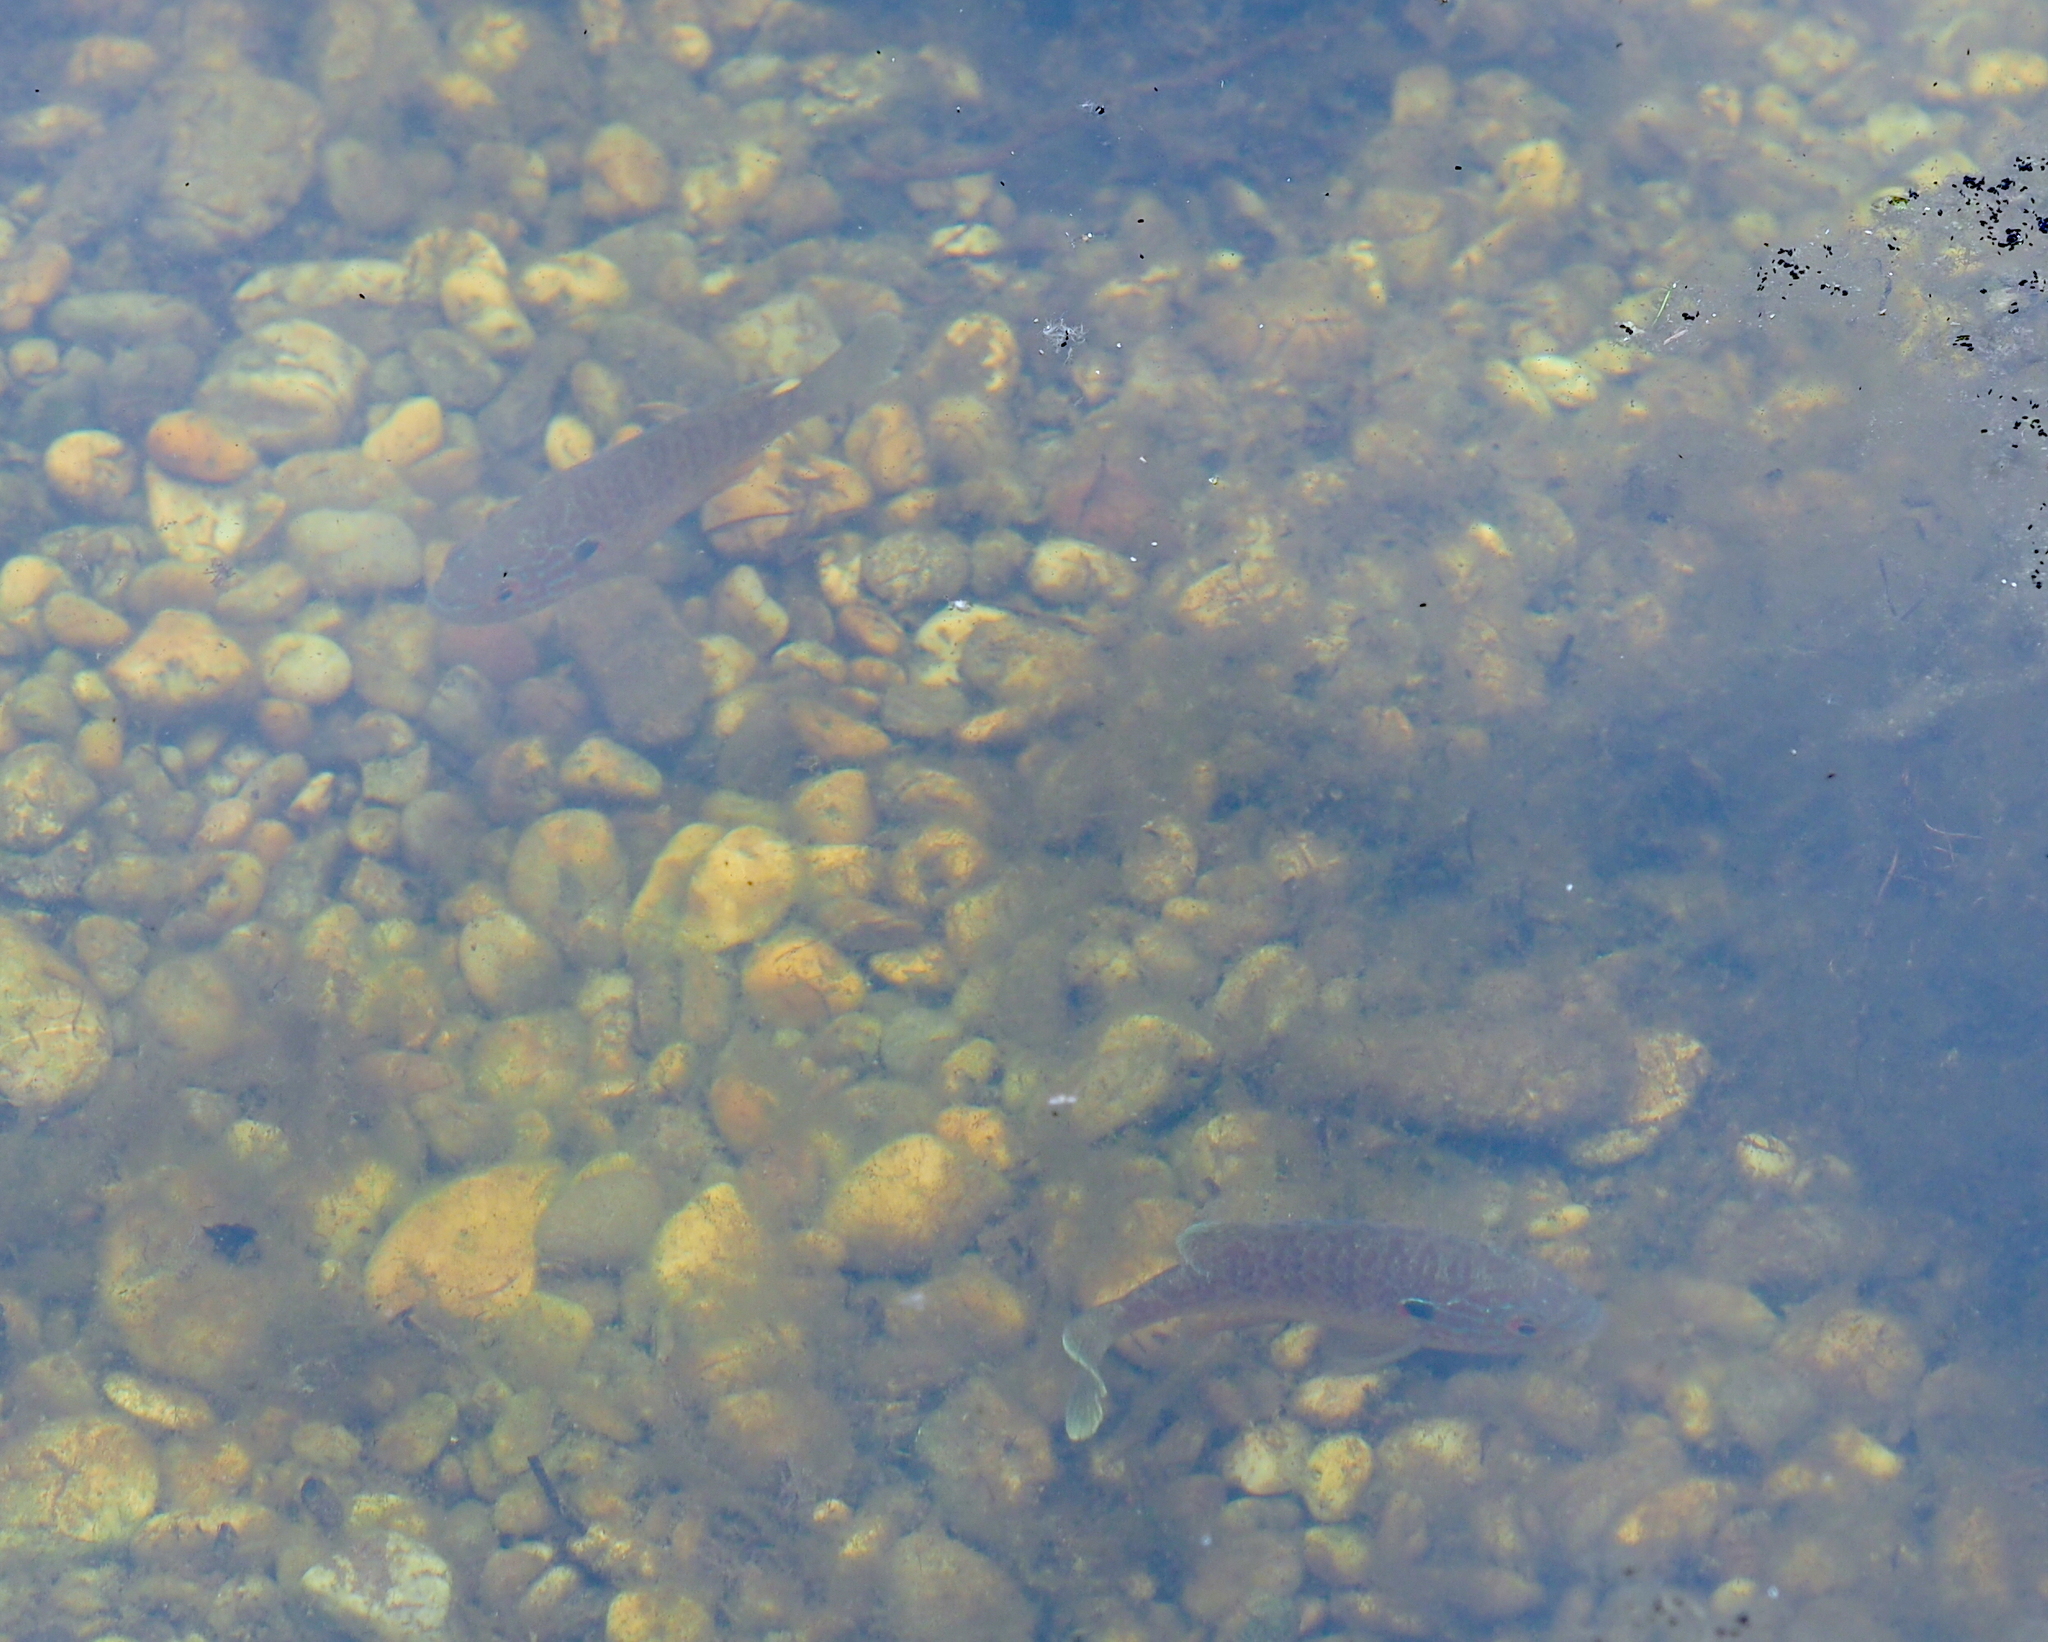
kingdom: Animalia
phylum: Chordata
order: Perciformes
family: Centrarchidae
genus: Lepomis
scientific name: Lepomis gibbosus
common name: Pumpkinseed
